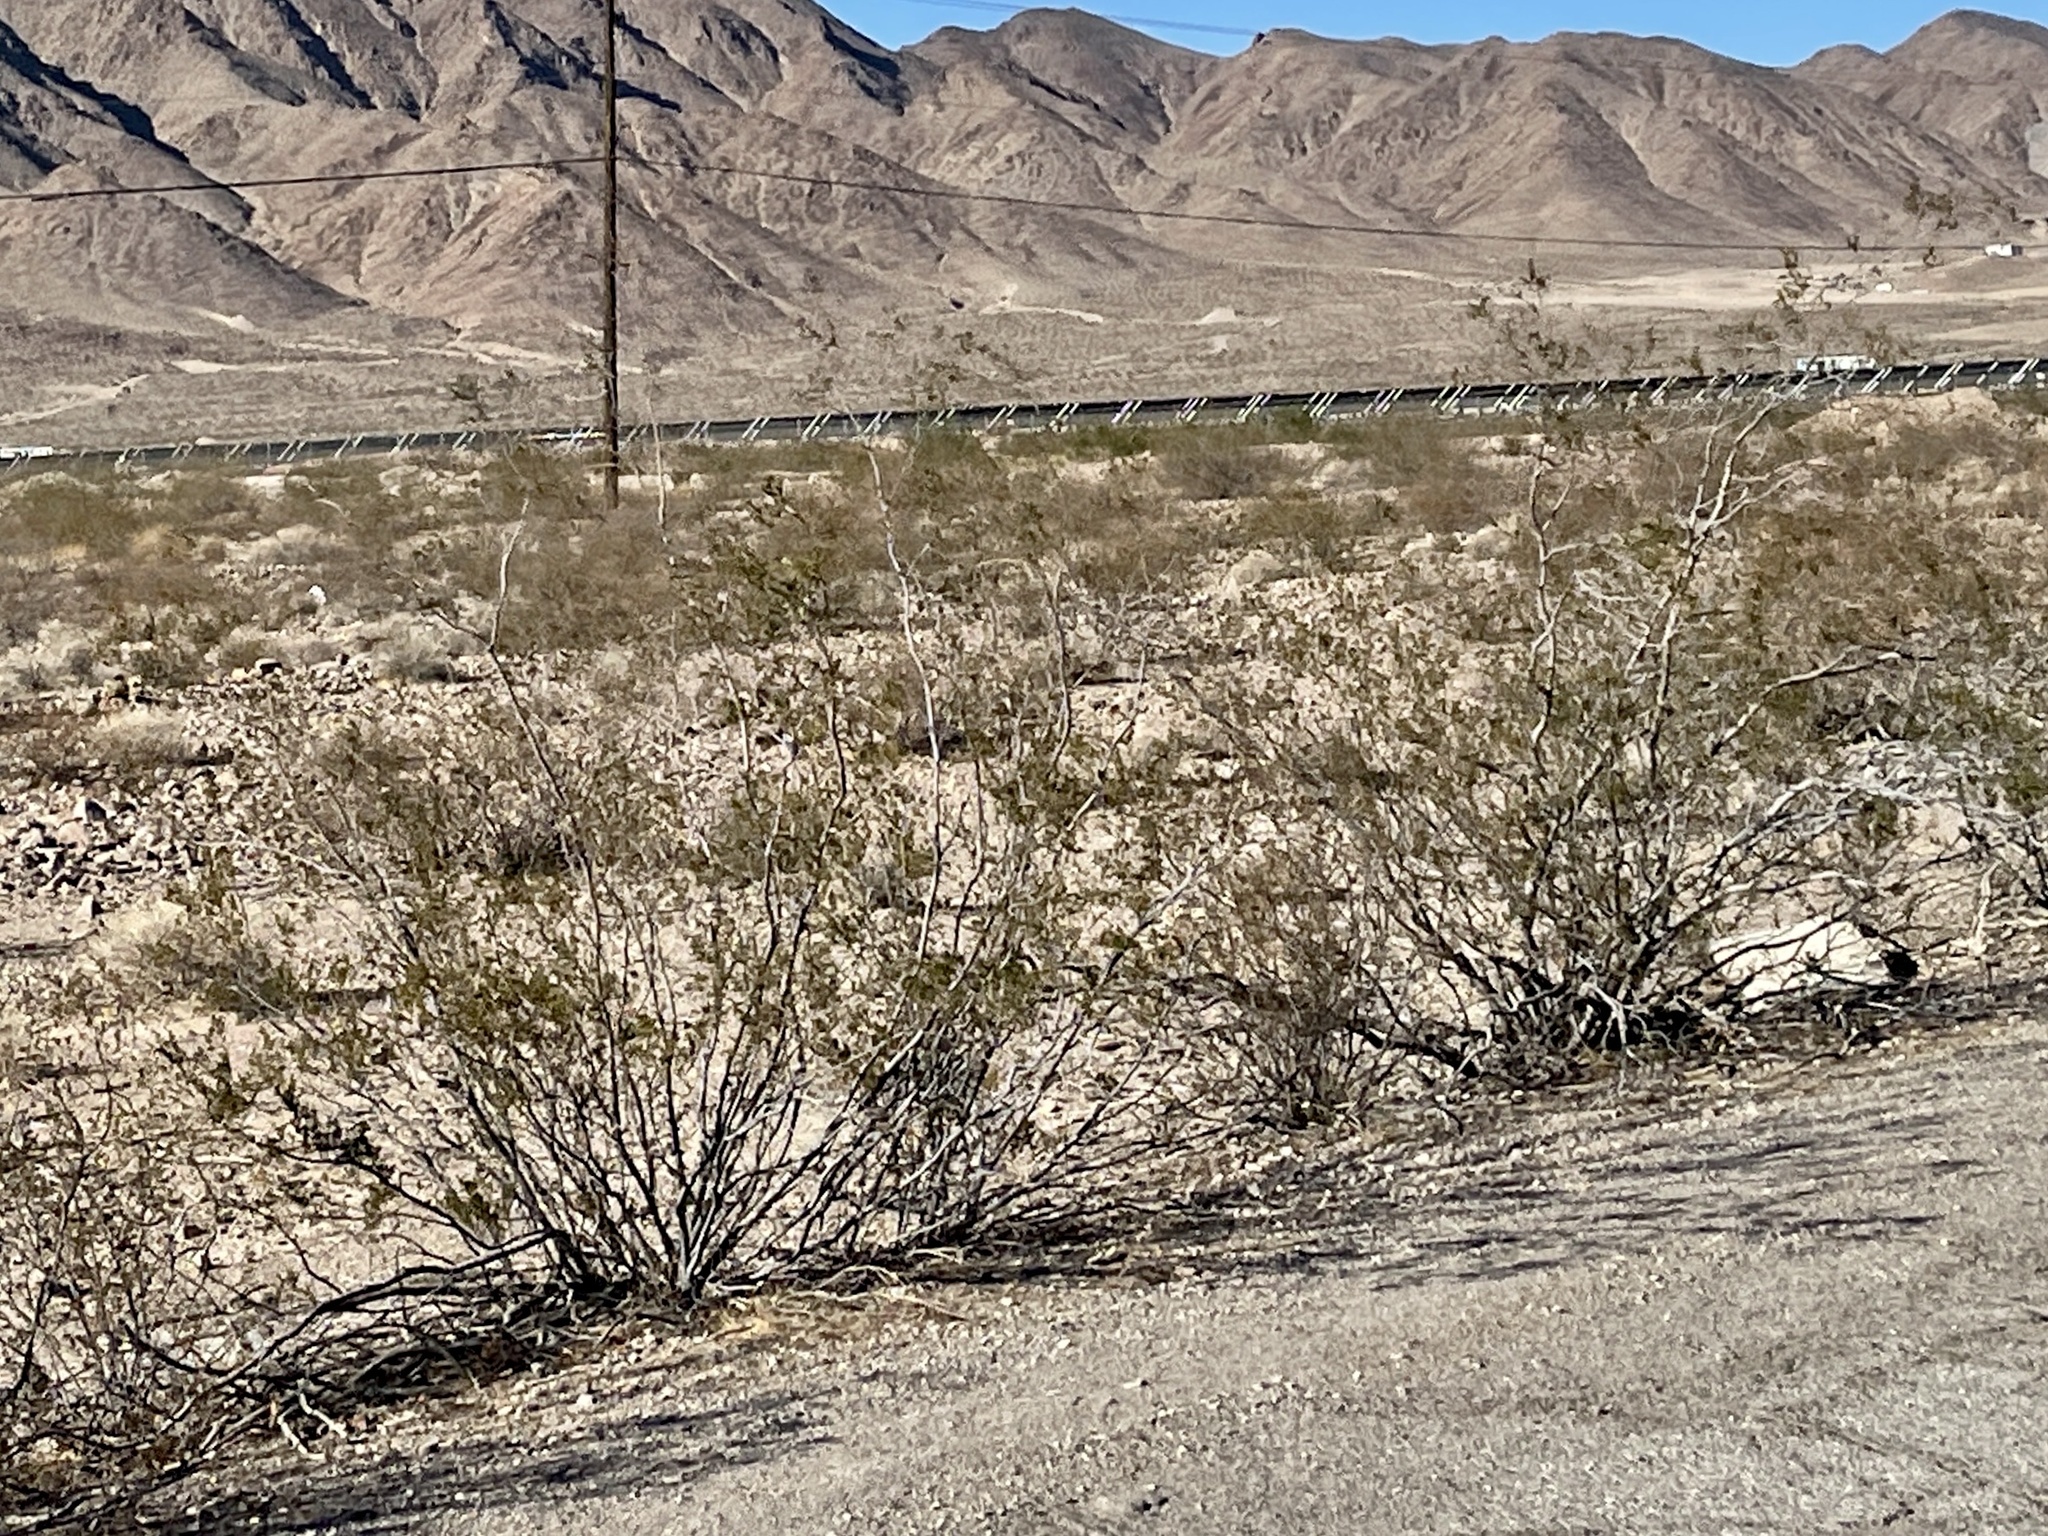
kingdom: Plantae
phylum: Tracheophyta
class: Magnoliopsida
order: Zygophyllales
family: Zygophyllaceae
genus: Larrea
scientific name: Larrea tridentata
